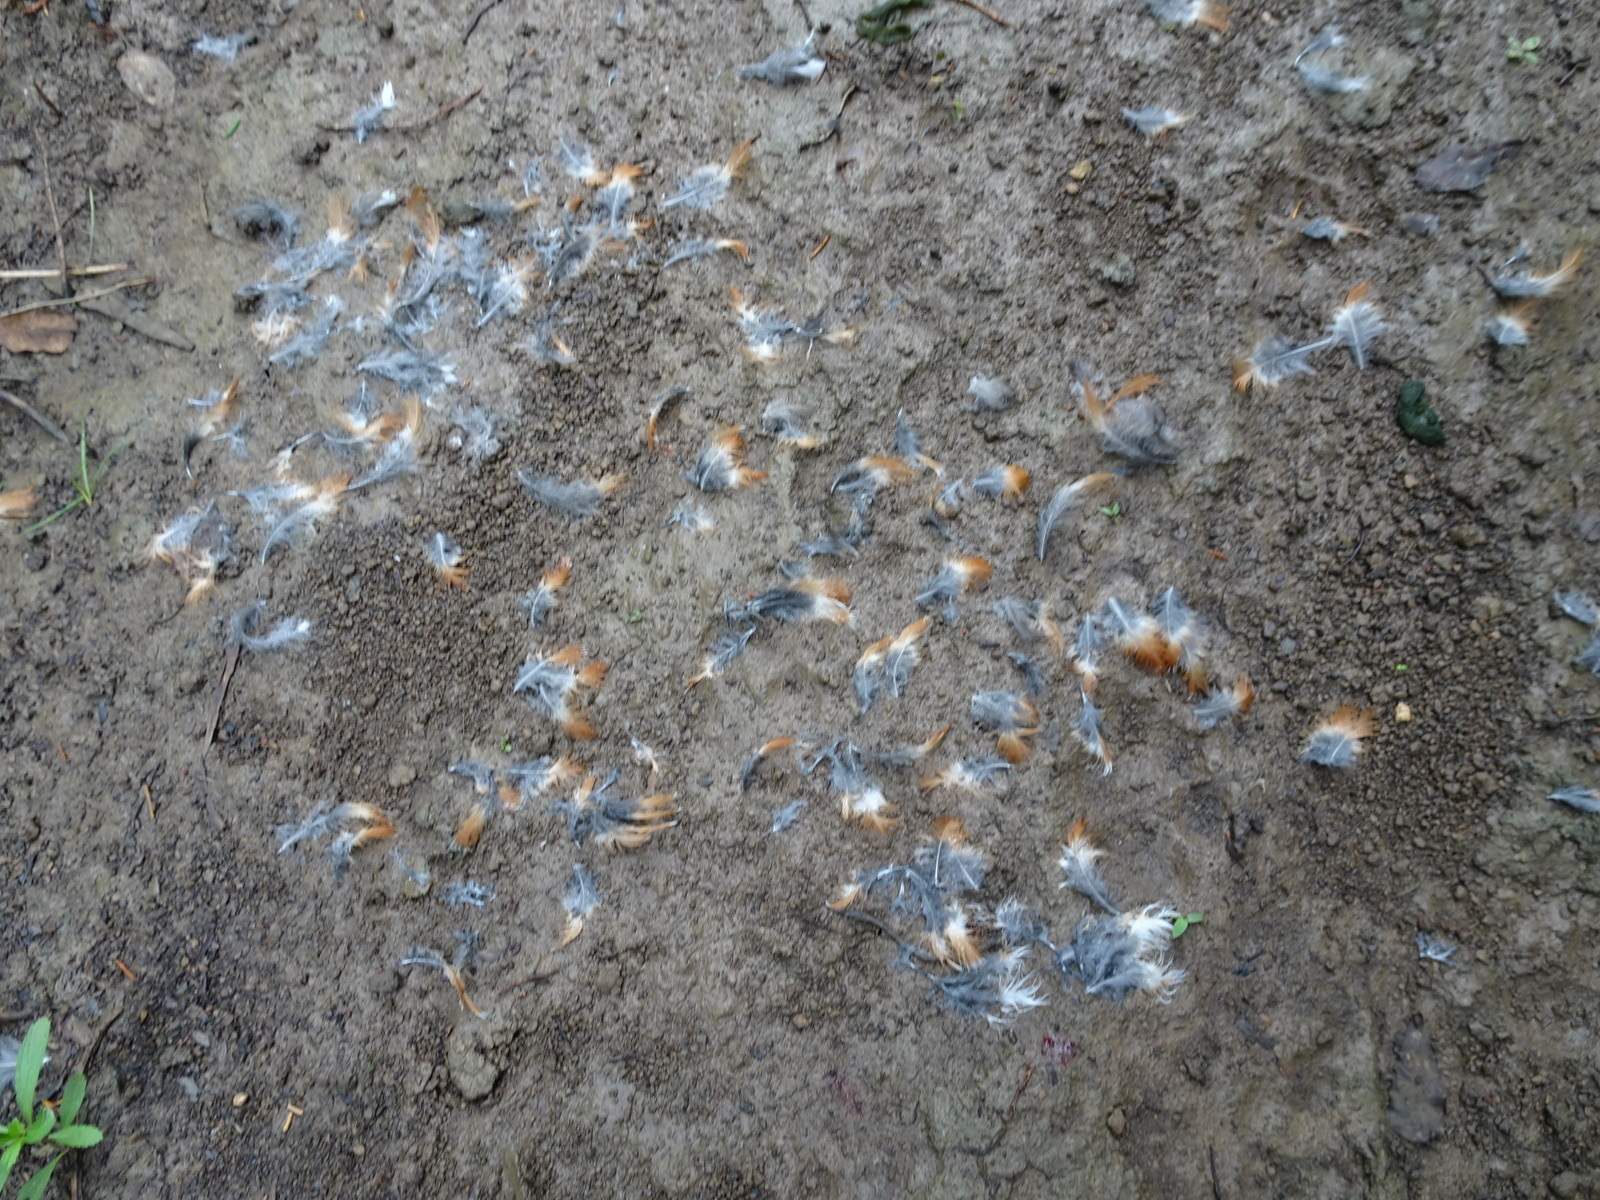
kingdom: Animalia
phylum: Chordata
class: Aves
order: Passeriformes
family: Turdidae
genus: Turdus
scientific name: Turdus migratorius
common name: American robin
